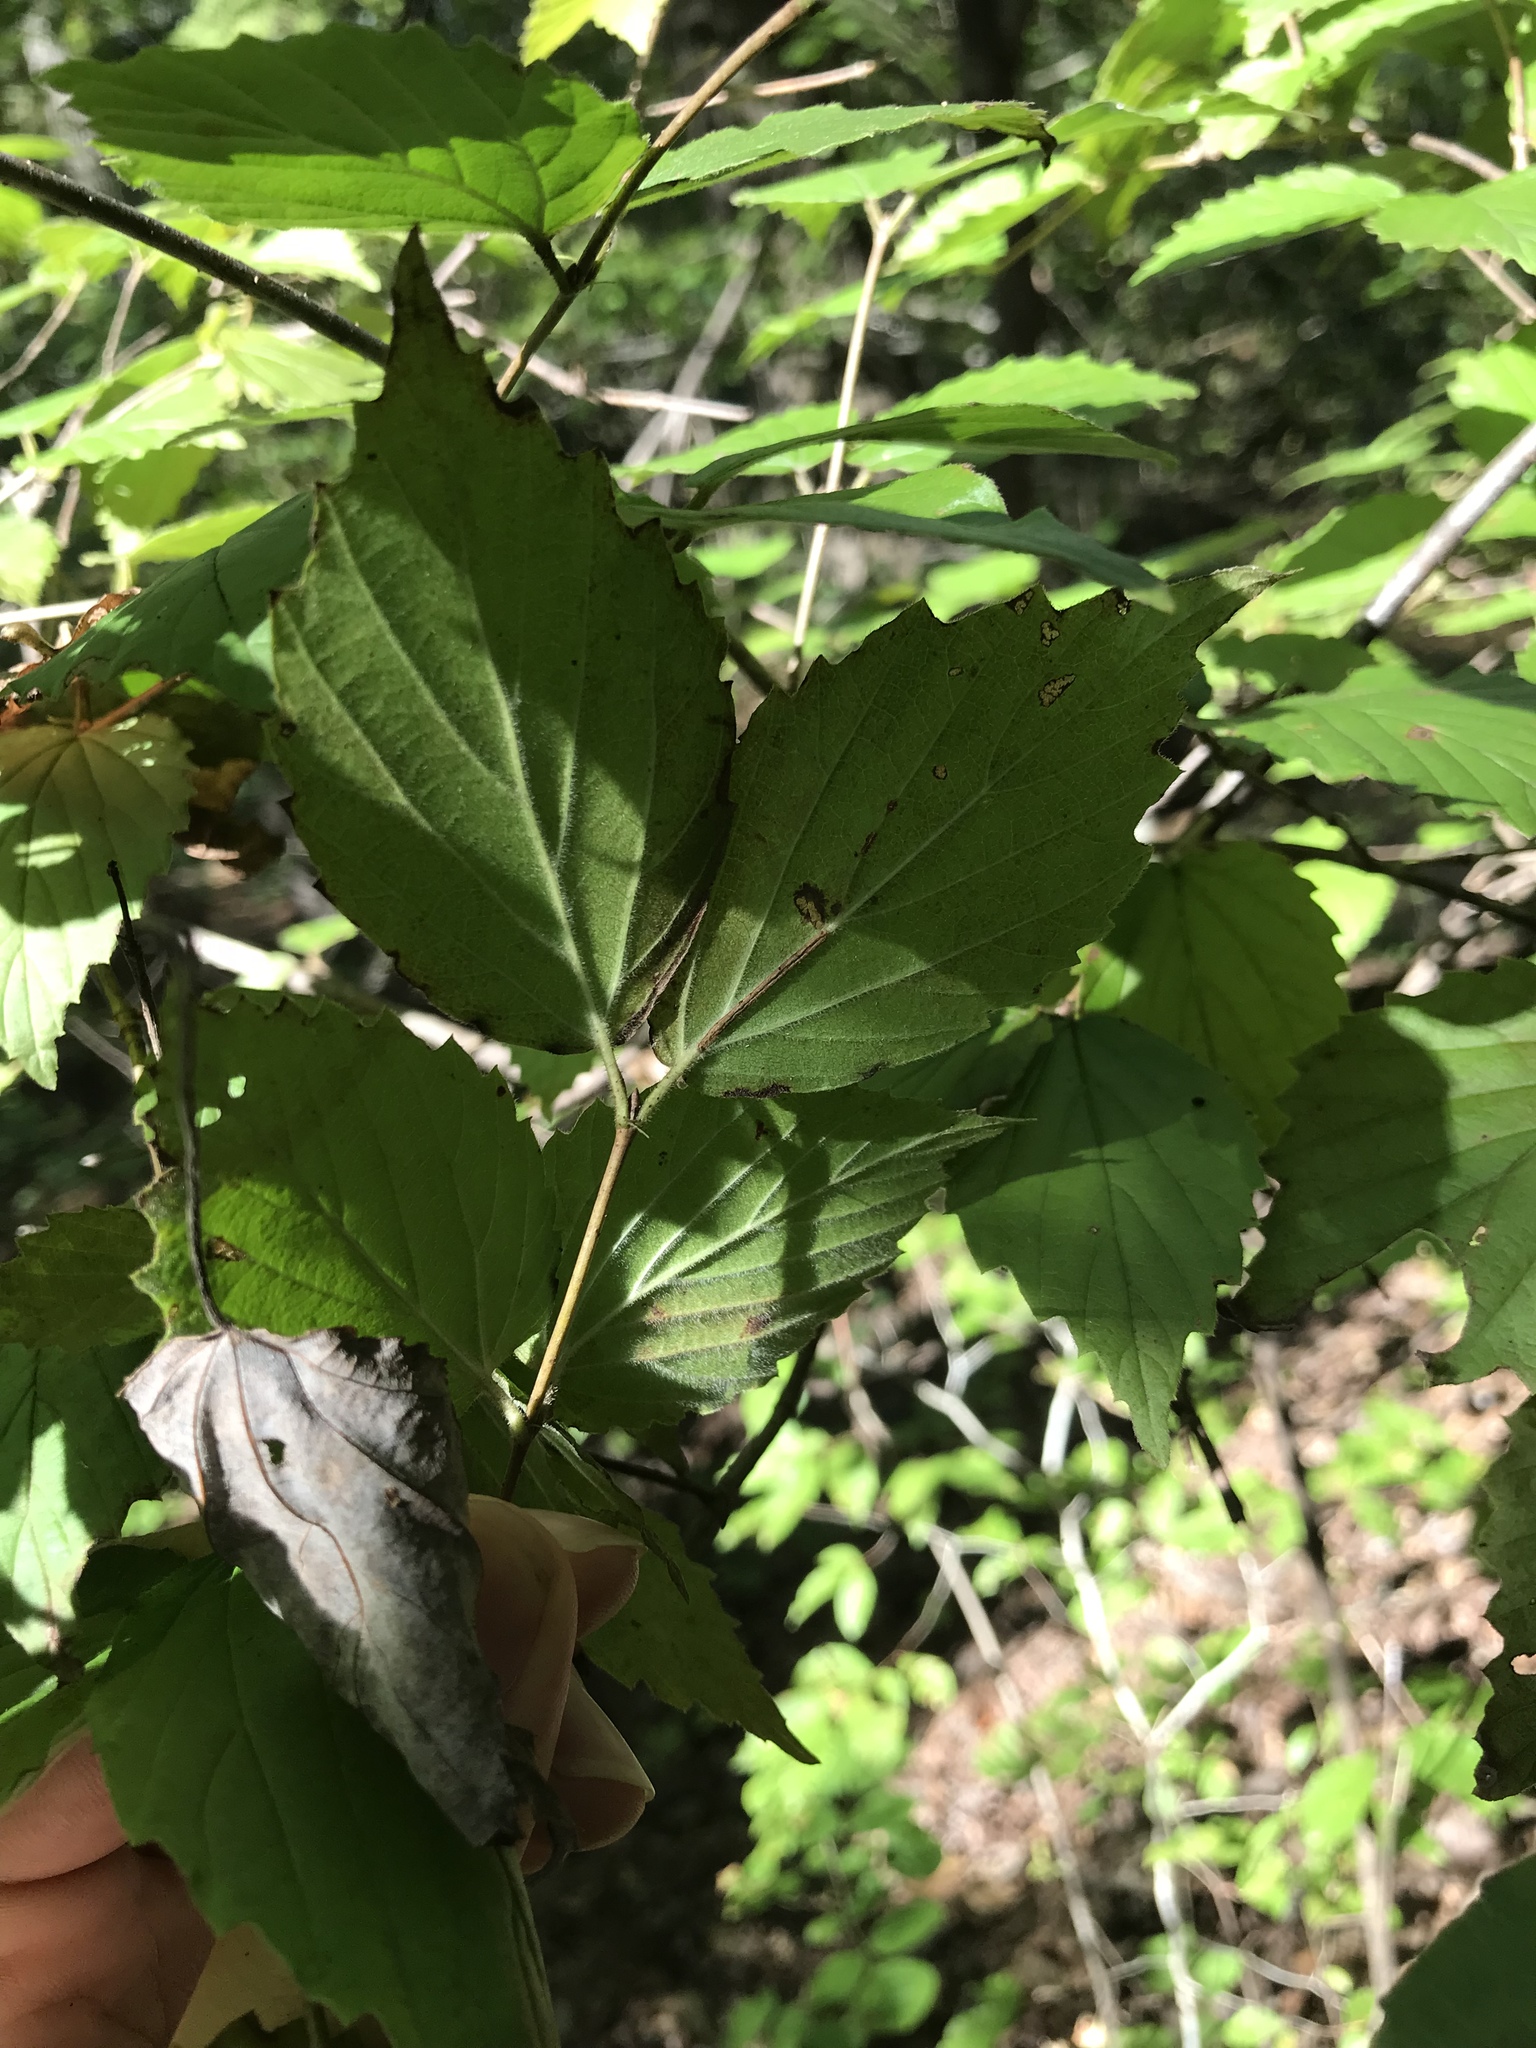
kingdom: Plantae
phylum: Tracheophyta
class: Magnoliopsida
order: Dipsacales
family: Viburnaceae
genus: Viburnum
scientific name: Viburnum rafinesqueanum
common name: Downy arrow-wood
